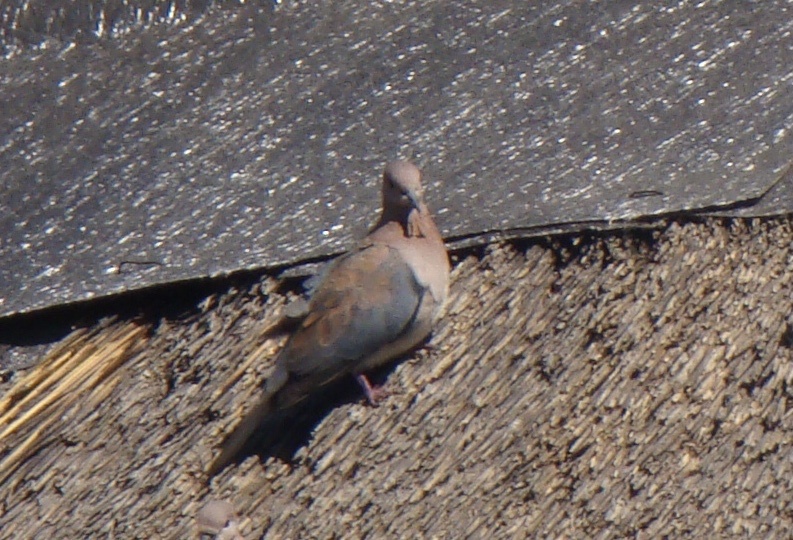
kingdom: Animalia
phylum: Chordata
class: Aves
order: Columbiformes
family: Columbidae
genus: Spilopelia
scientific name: Spilopelia senegalensis
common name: Laughing dove
